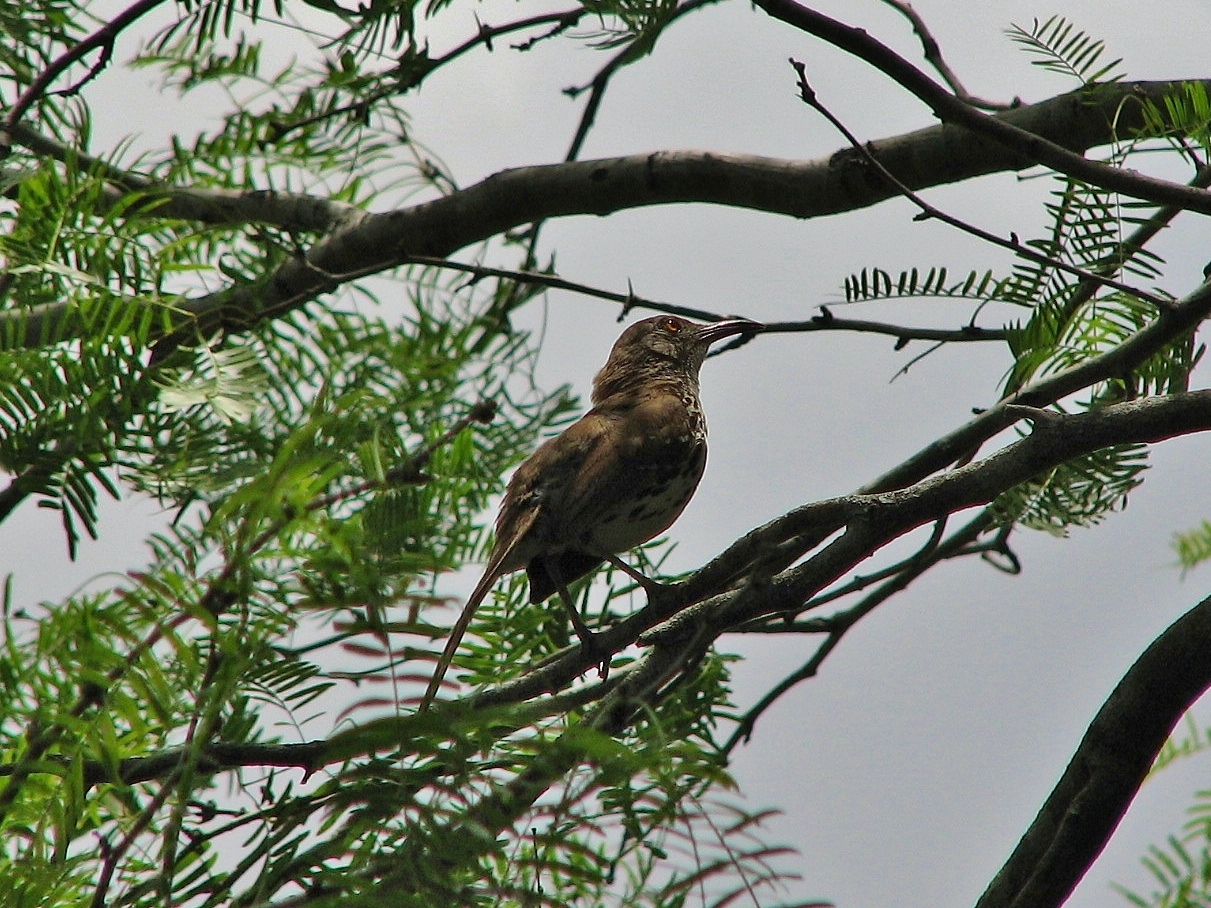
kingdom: Animalia
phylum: Chordata
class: Aves
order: Passeriformes
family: Mimidae
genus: Toxostoma
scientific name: Toxostoma longirostre
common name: Long-billed thrasher
